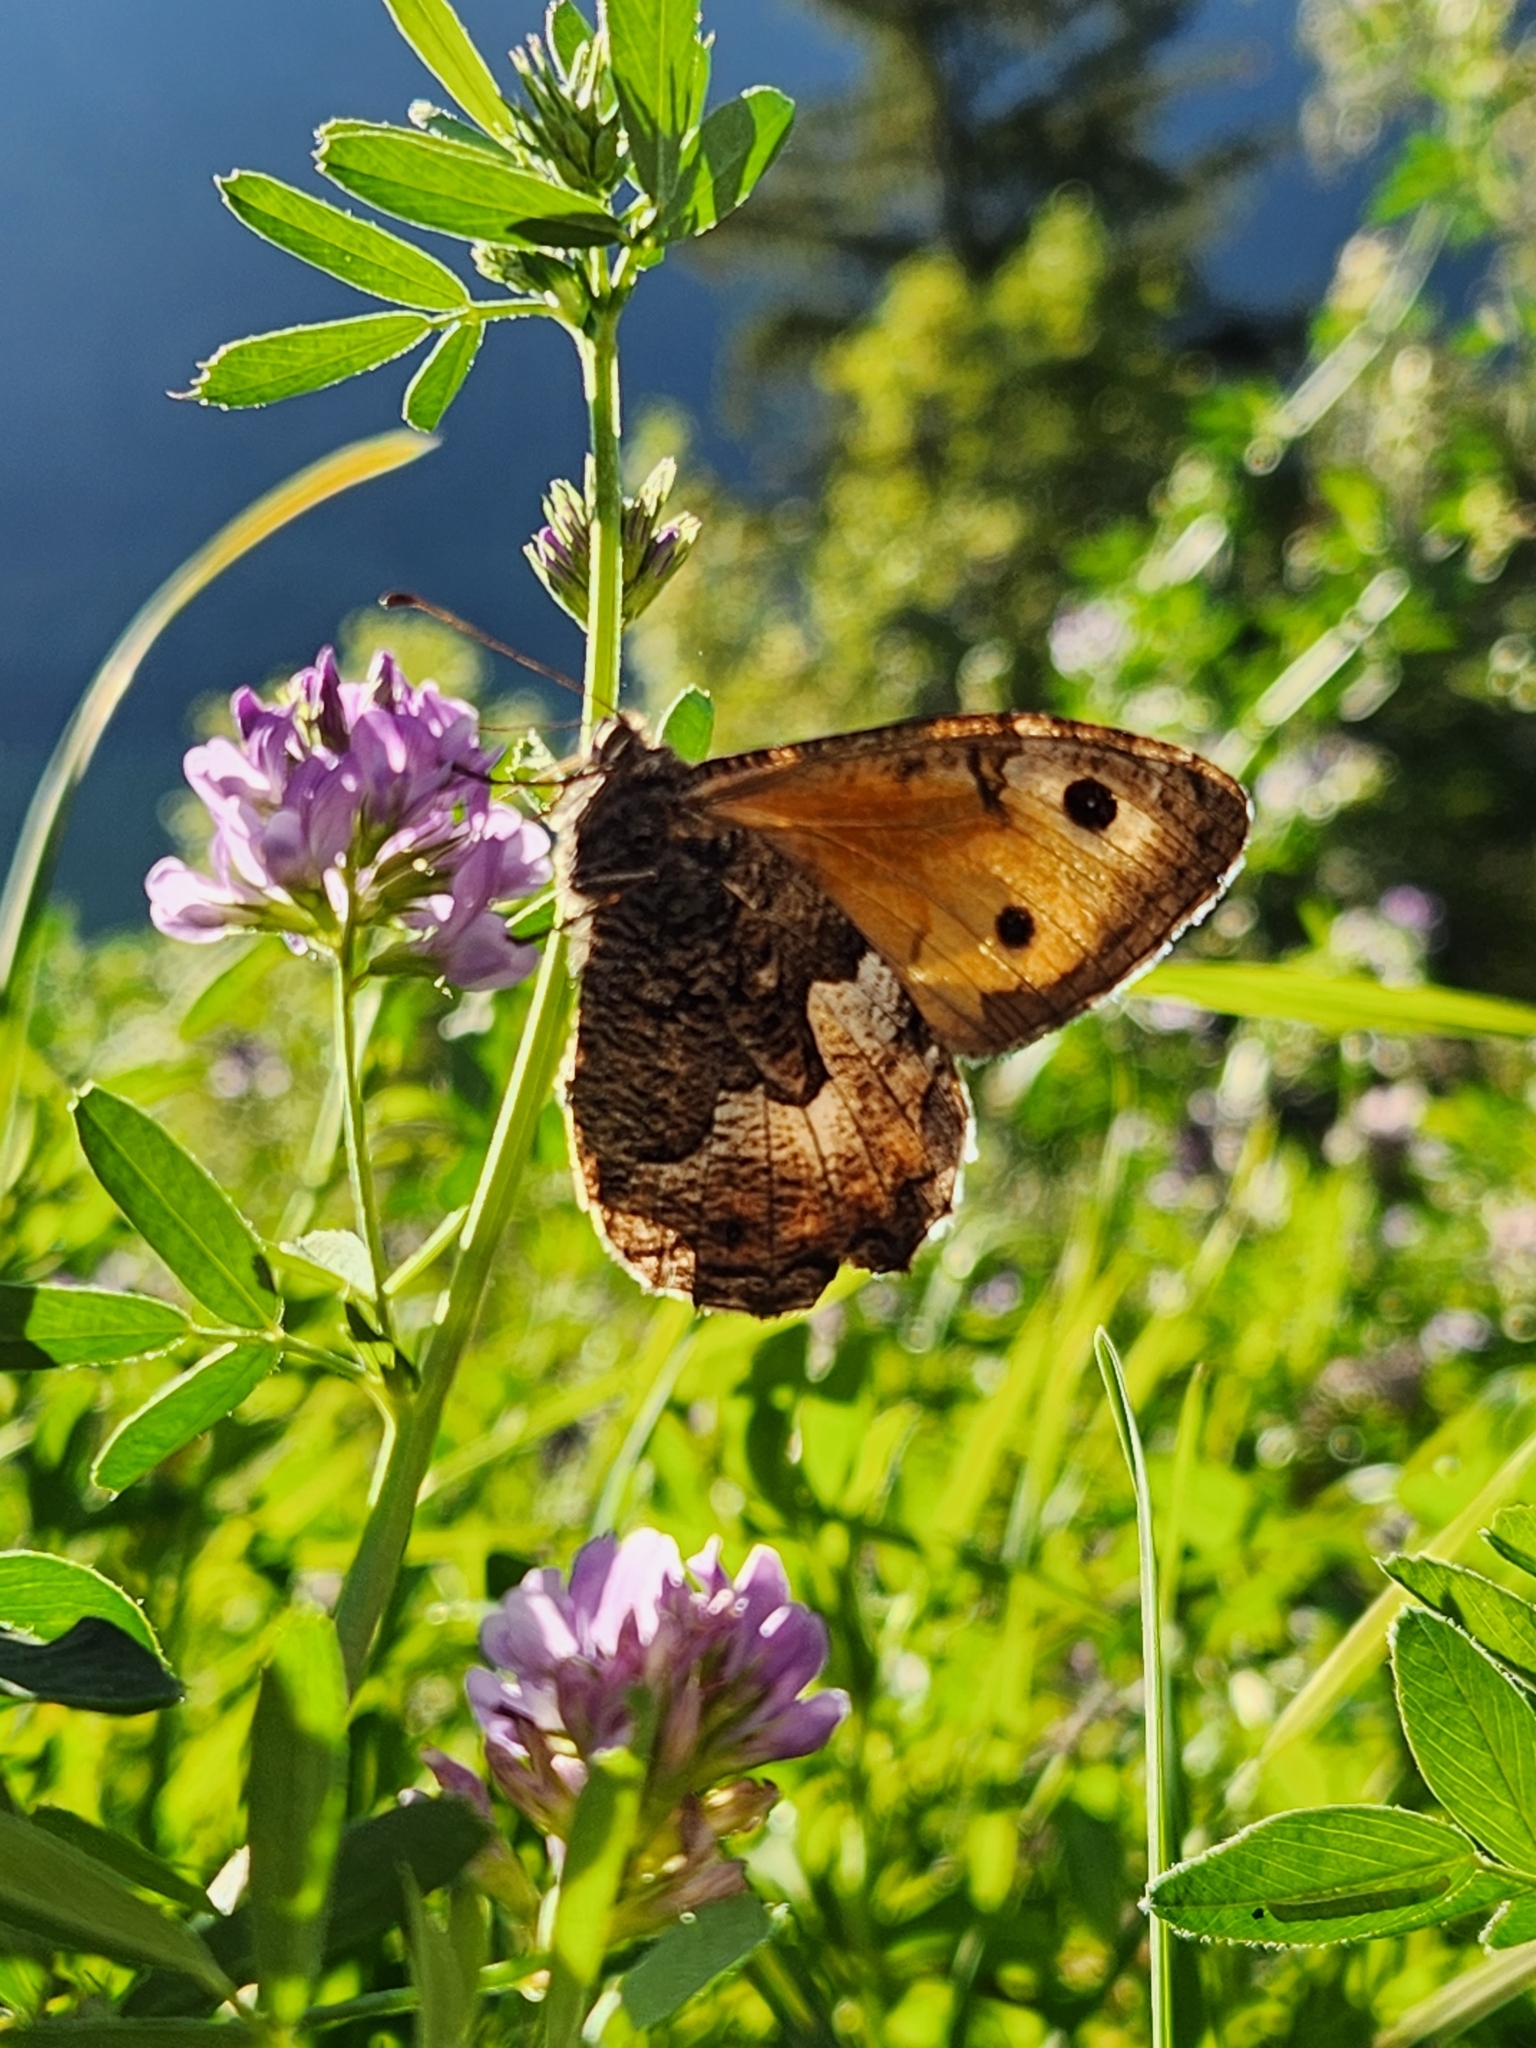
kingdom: Animalia
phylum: Arthropoda
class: Insecta
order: Lepidoptera
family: Nymphalidae
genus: Hipparchia
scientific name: Hipparchia semele
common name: Grayling
